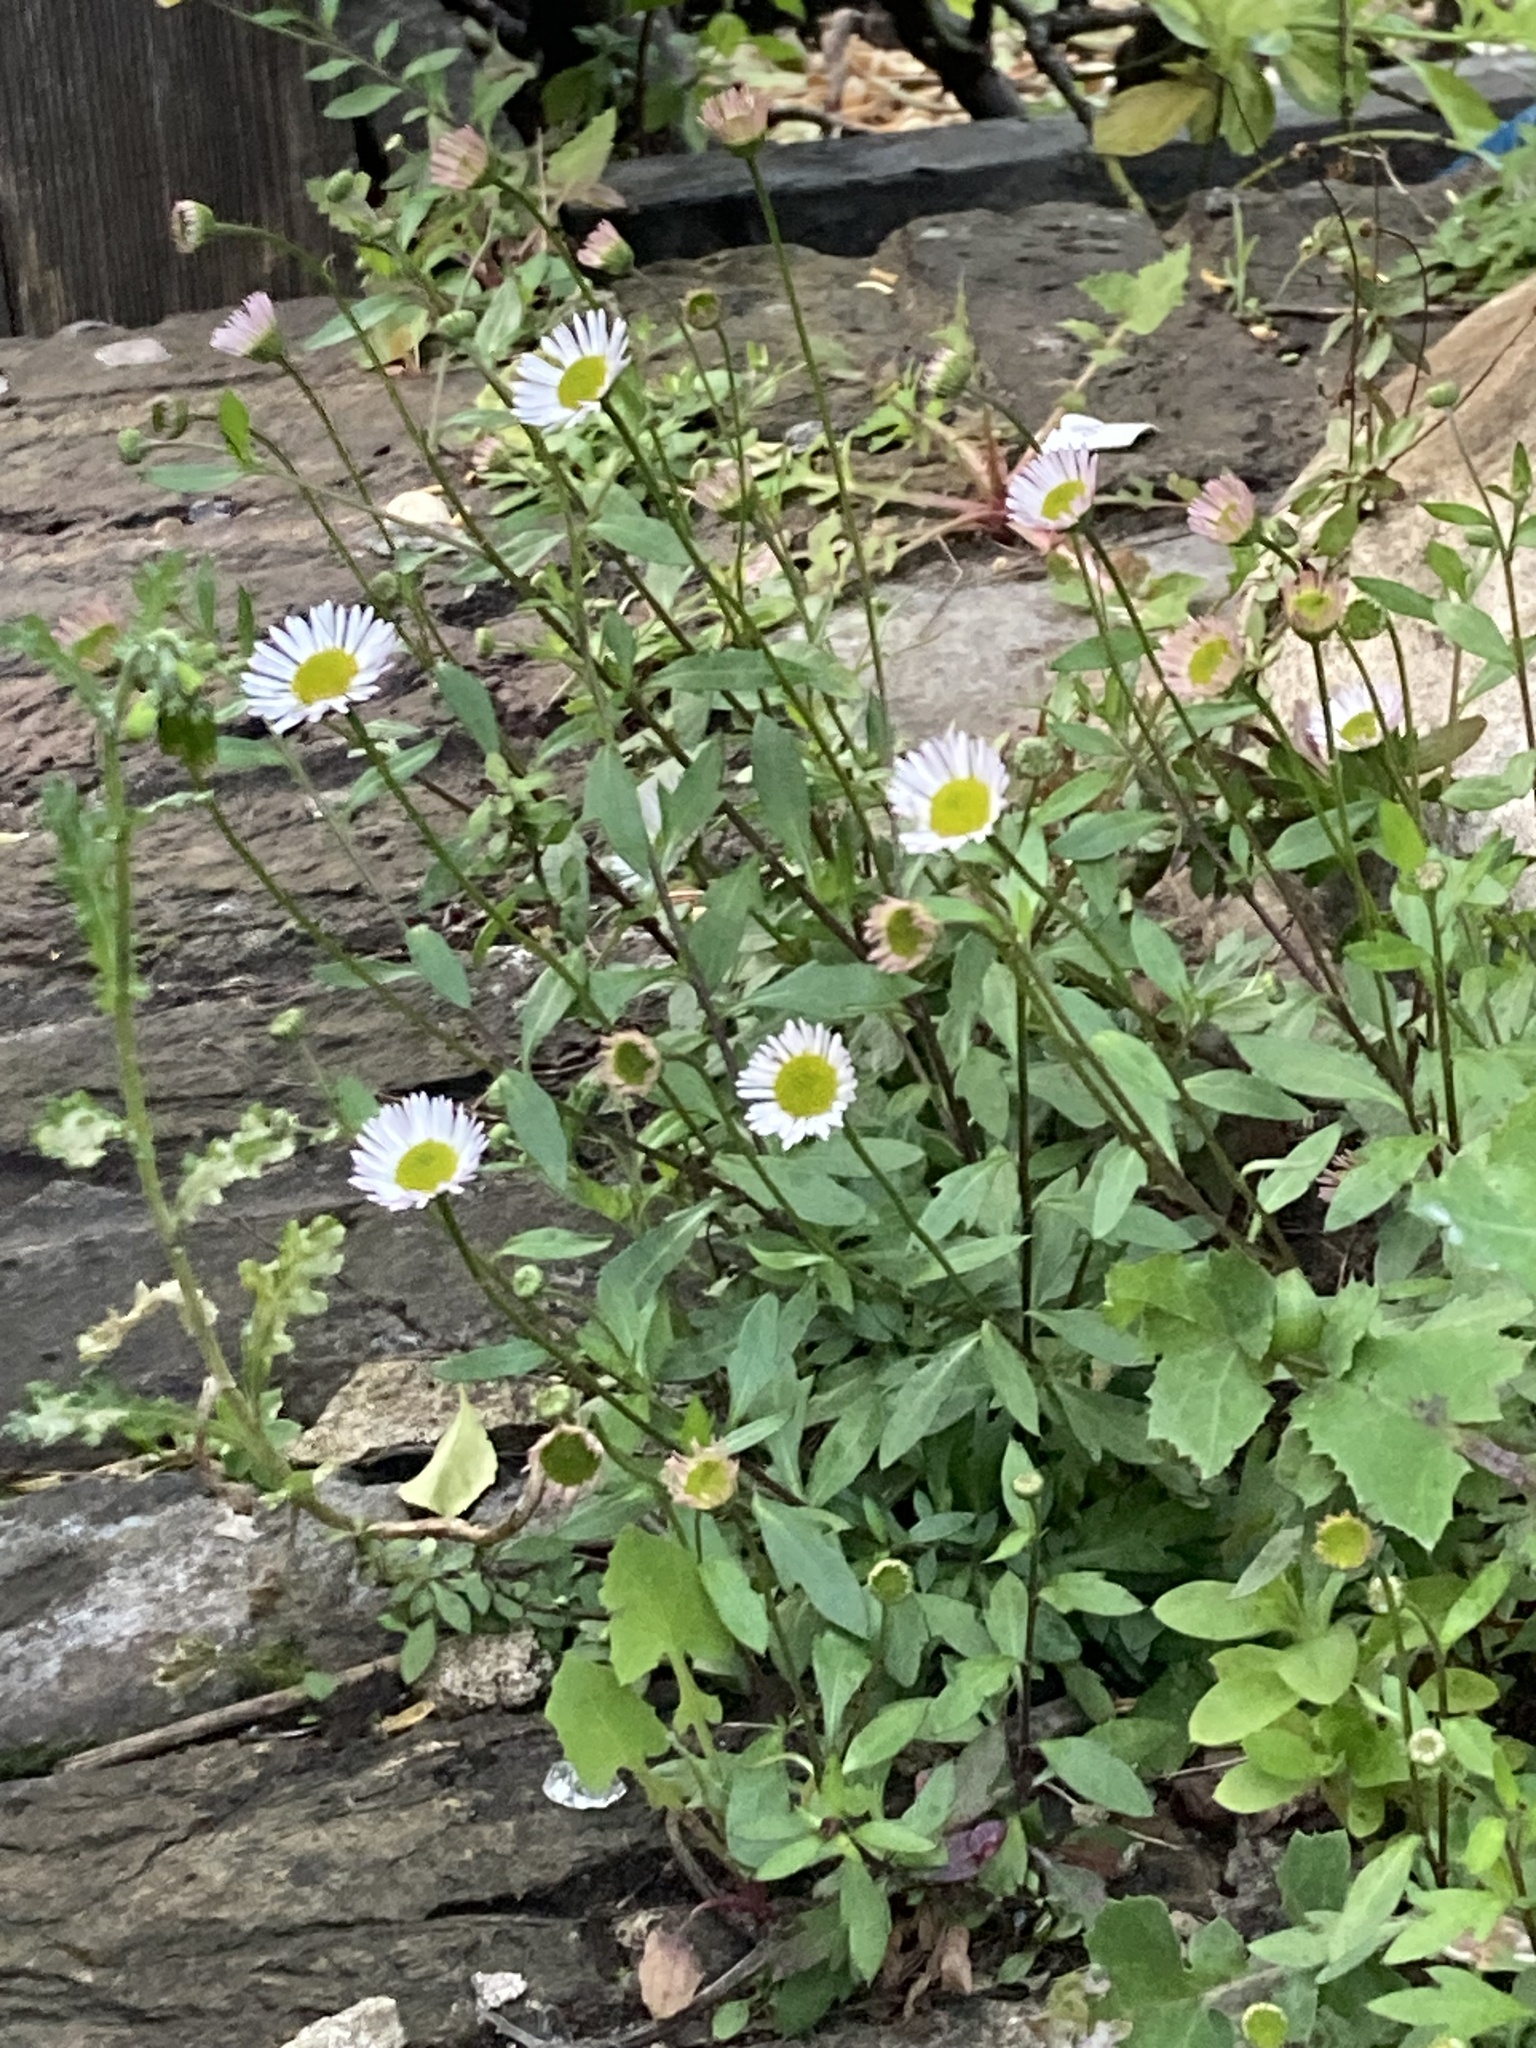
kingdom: Plantae
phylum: Tracheophyta
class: Magnoliopsida
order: Asterales
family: Asteraceae
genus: Erigeron
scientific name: Erigeron karvinskianus
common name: Mexican fleabane
